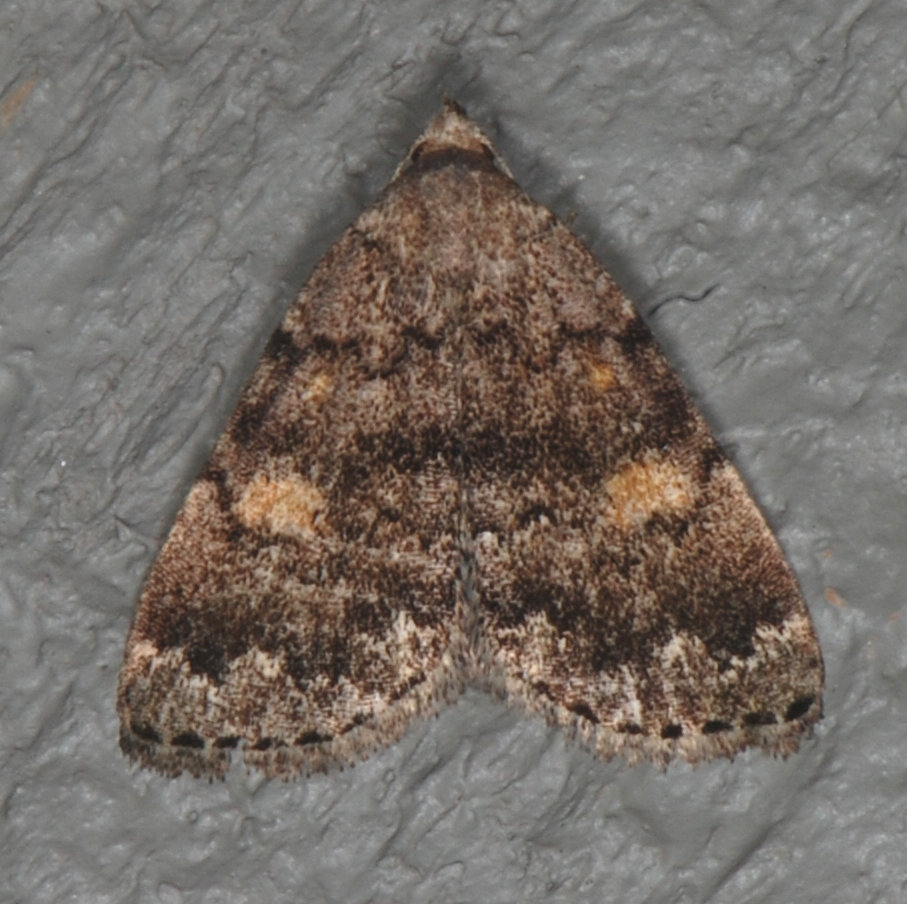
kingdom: Animalia
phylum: Arthropoda
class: Insecta
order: Lepidoptera
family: Erebidae
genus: Idia
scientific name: Idia aemula
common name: Common idia moth
